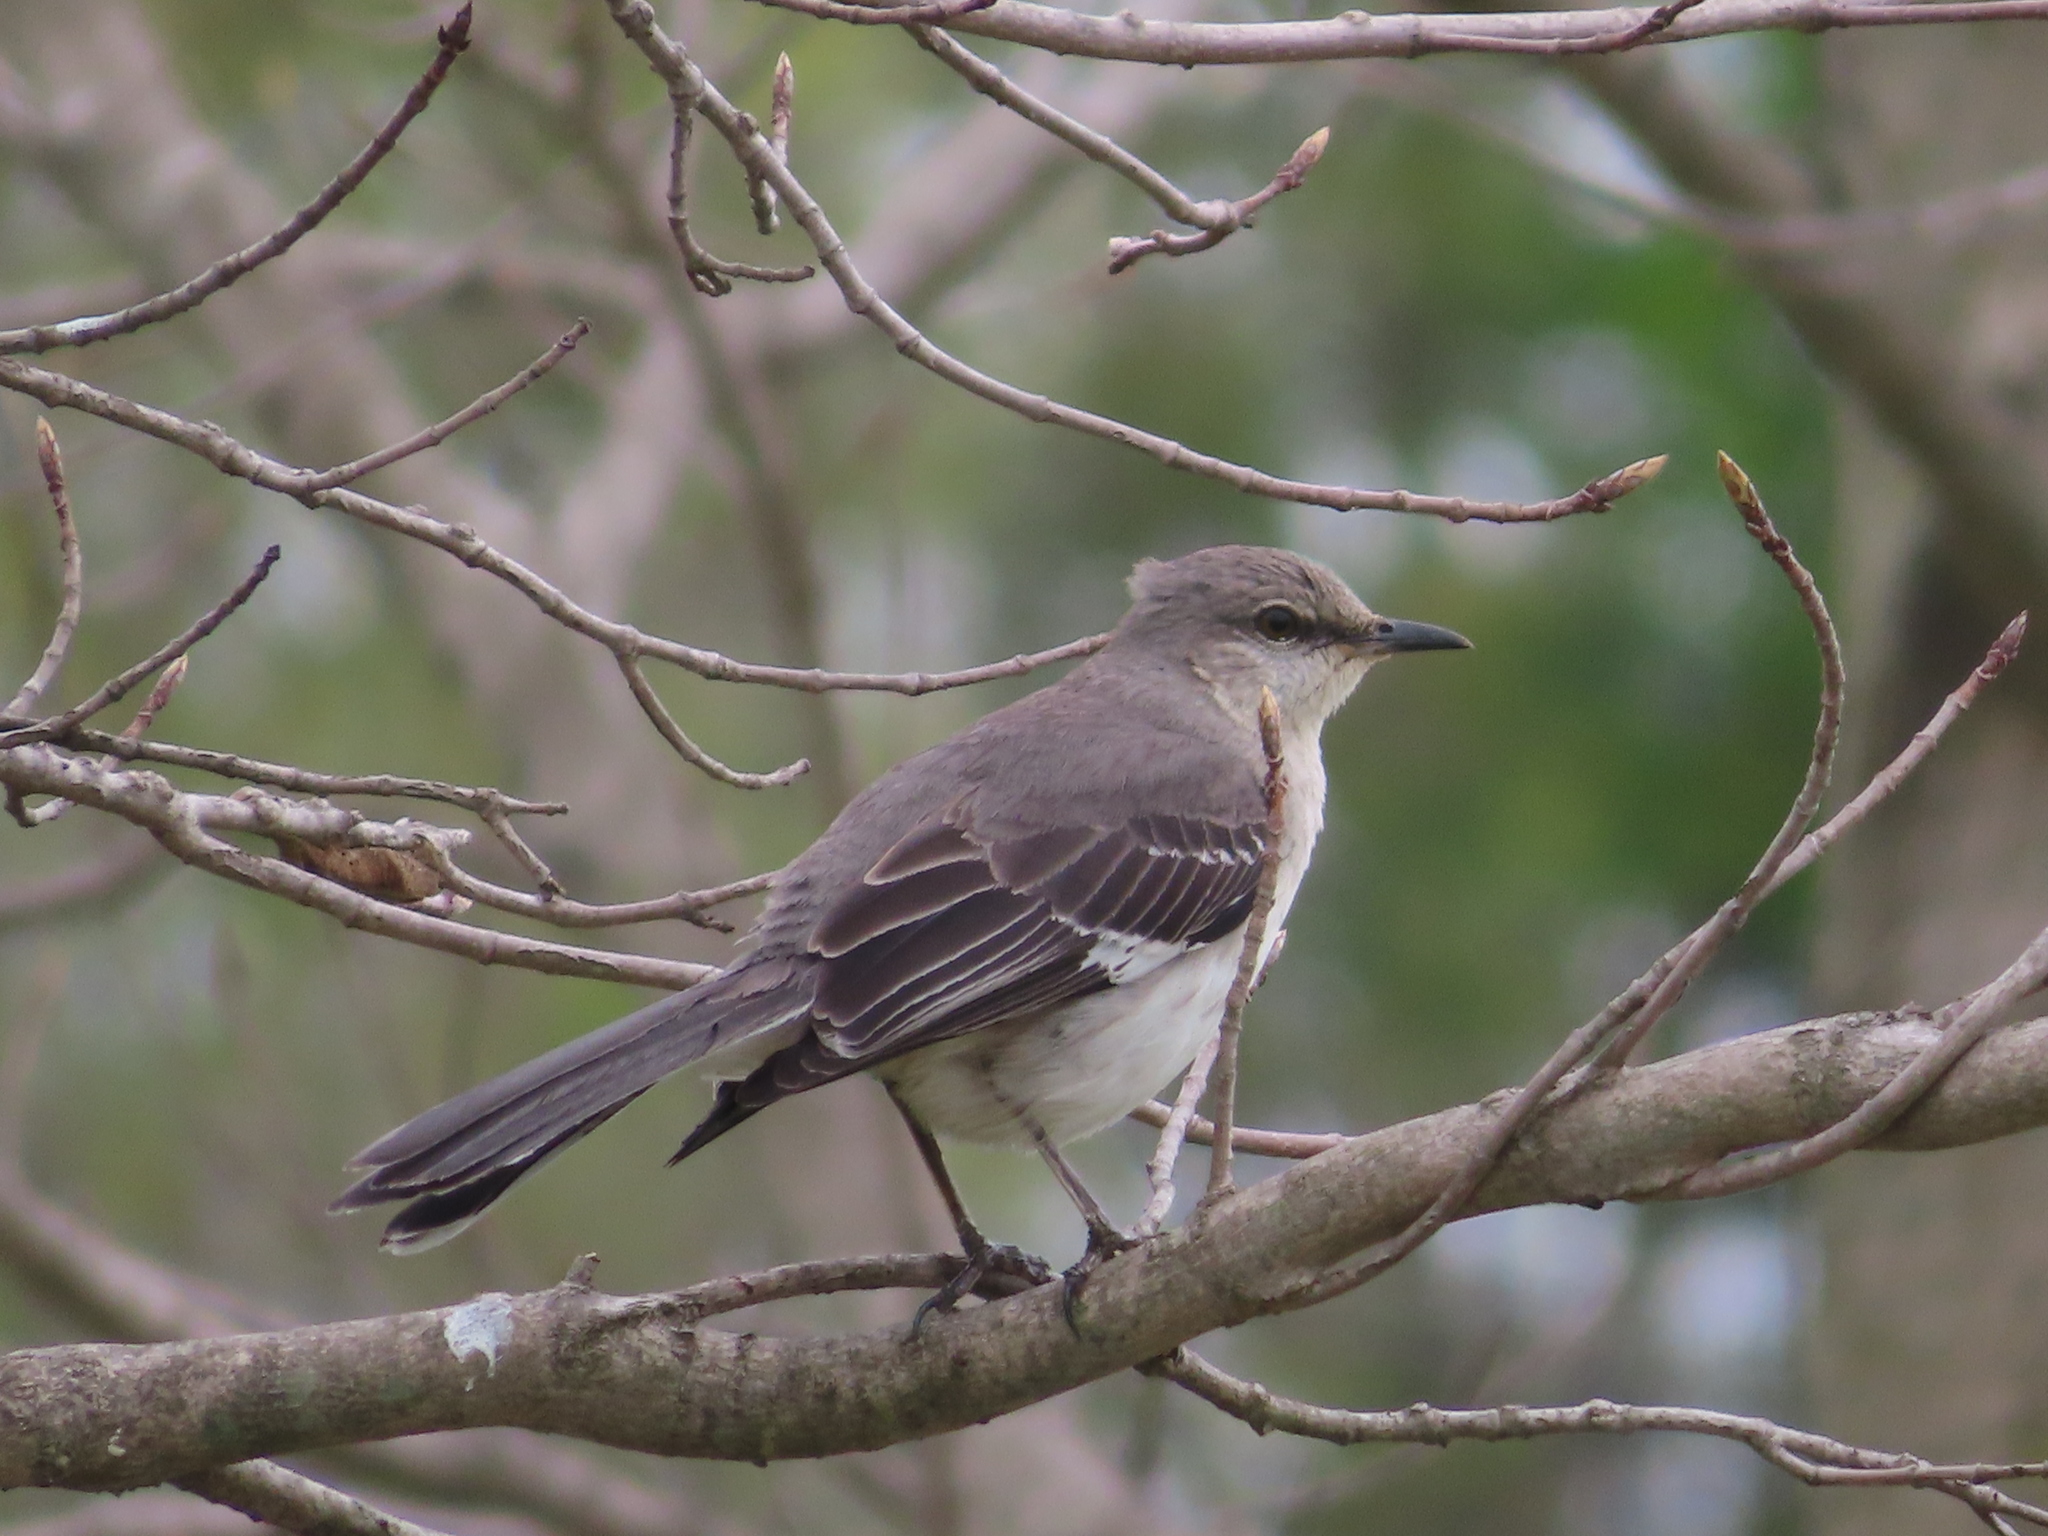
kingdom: Animalia
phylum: Chordata
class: Aves
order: Passeriformes
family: Mimidae
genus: Mimus
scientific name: Mimus polyglottos
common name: Northern mockingbird
